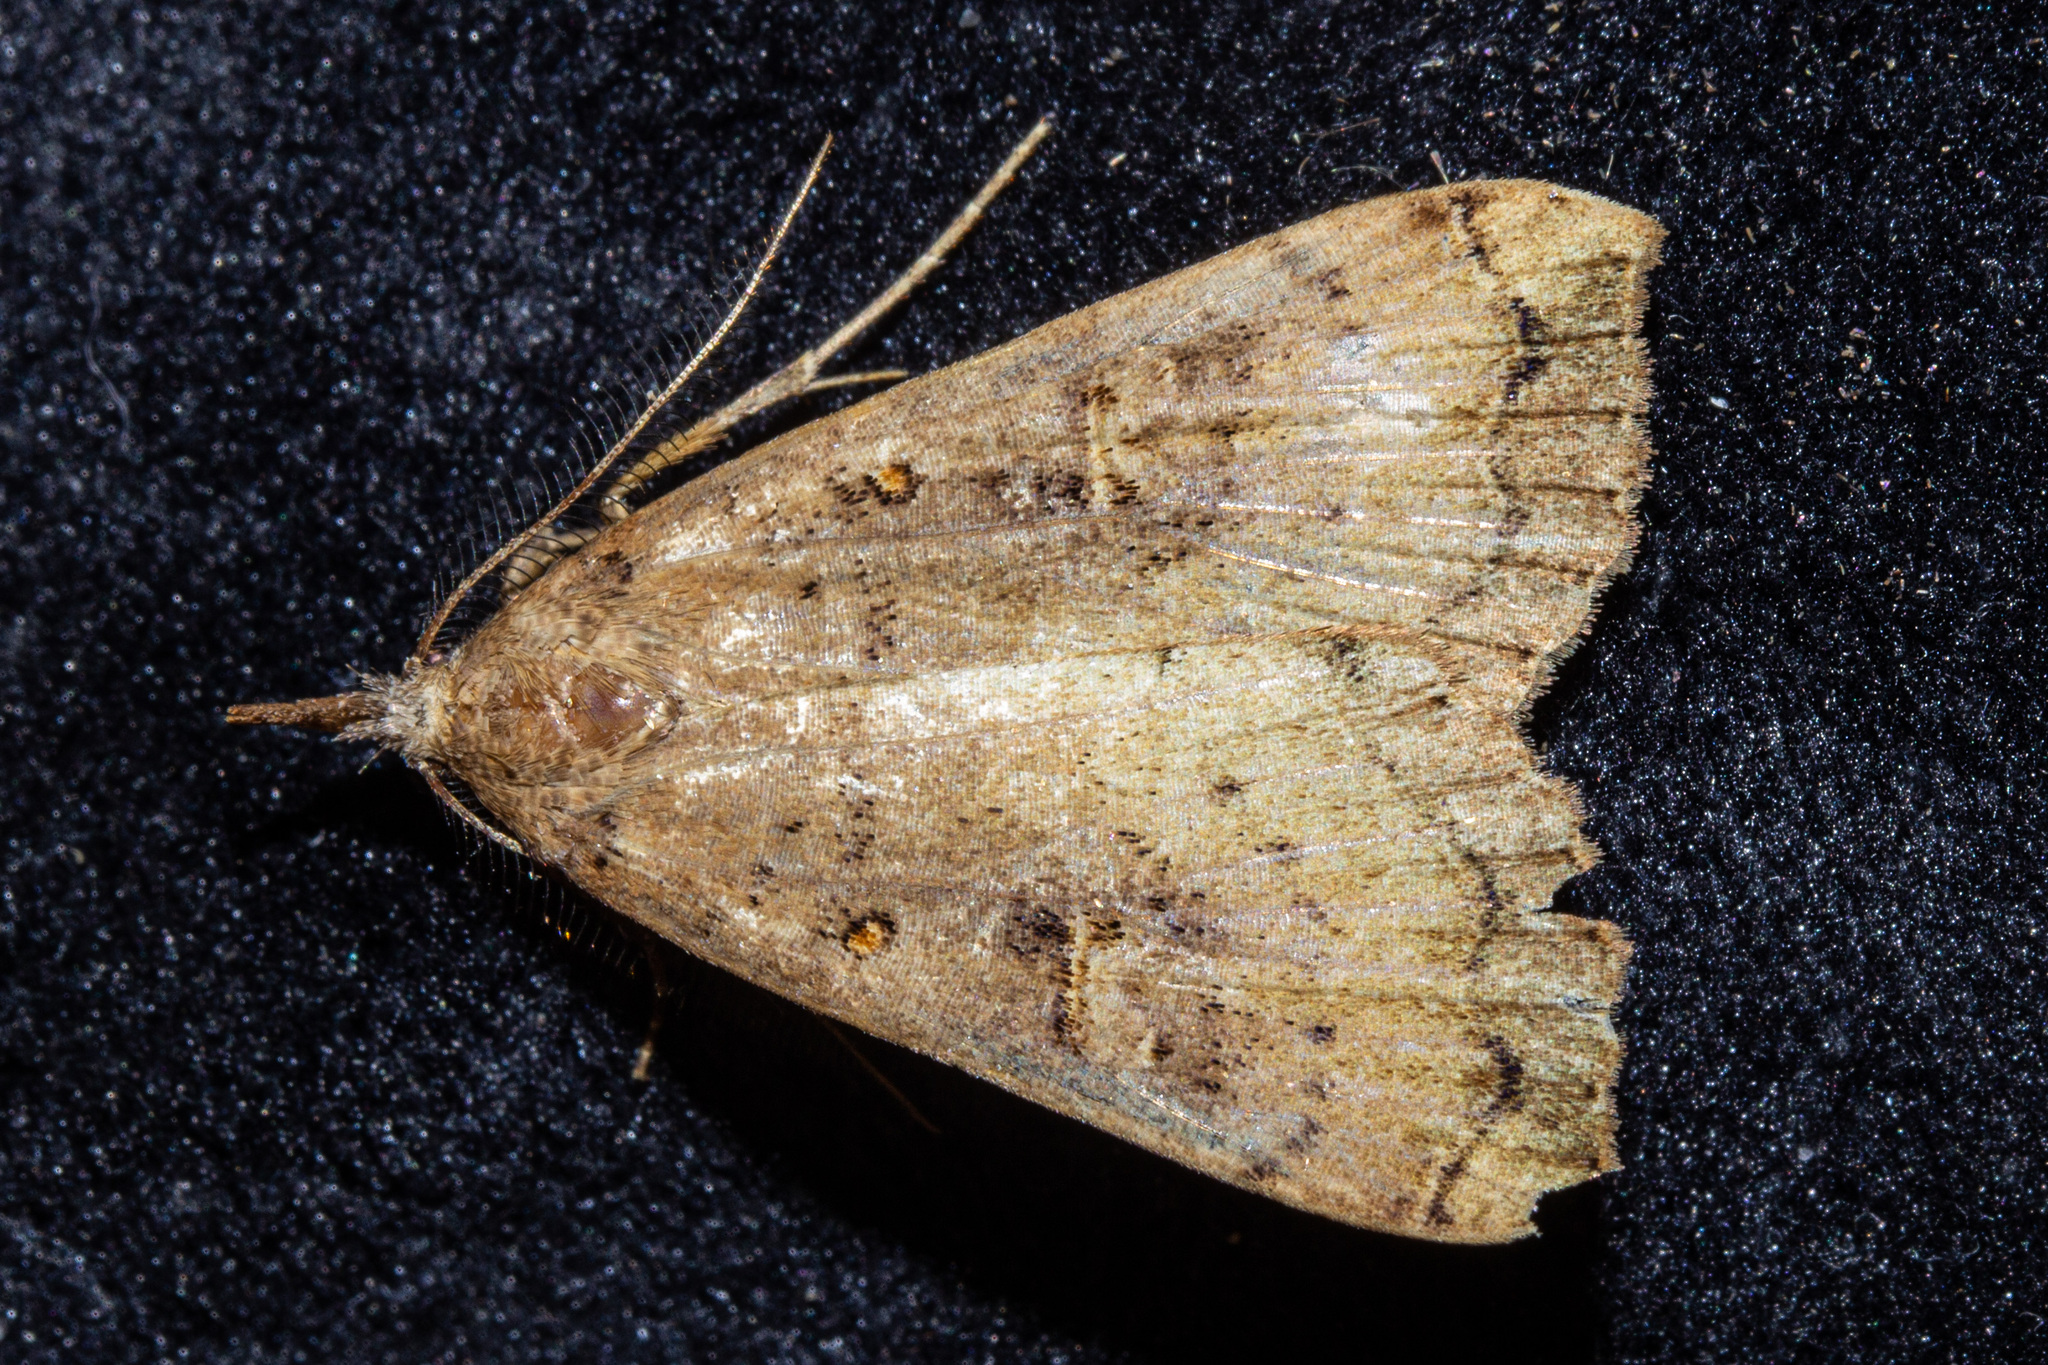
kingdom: Animalia
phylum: Arthropoda
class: Insecta
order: Lepidoptera
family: Erebidae
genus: Rhapsa
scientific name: Rhapsa scotosialis
